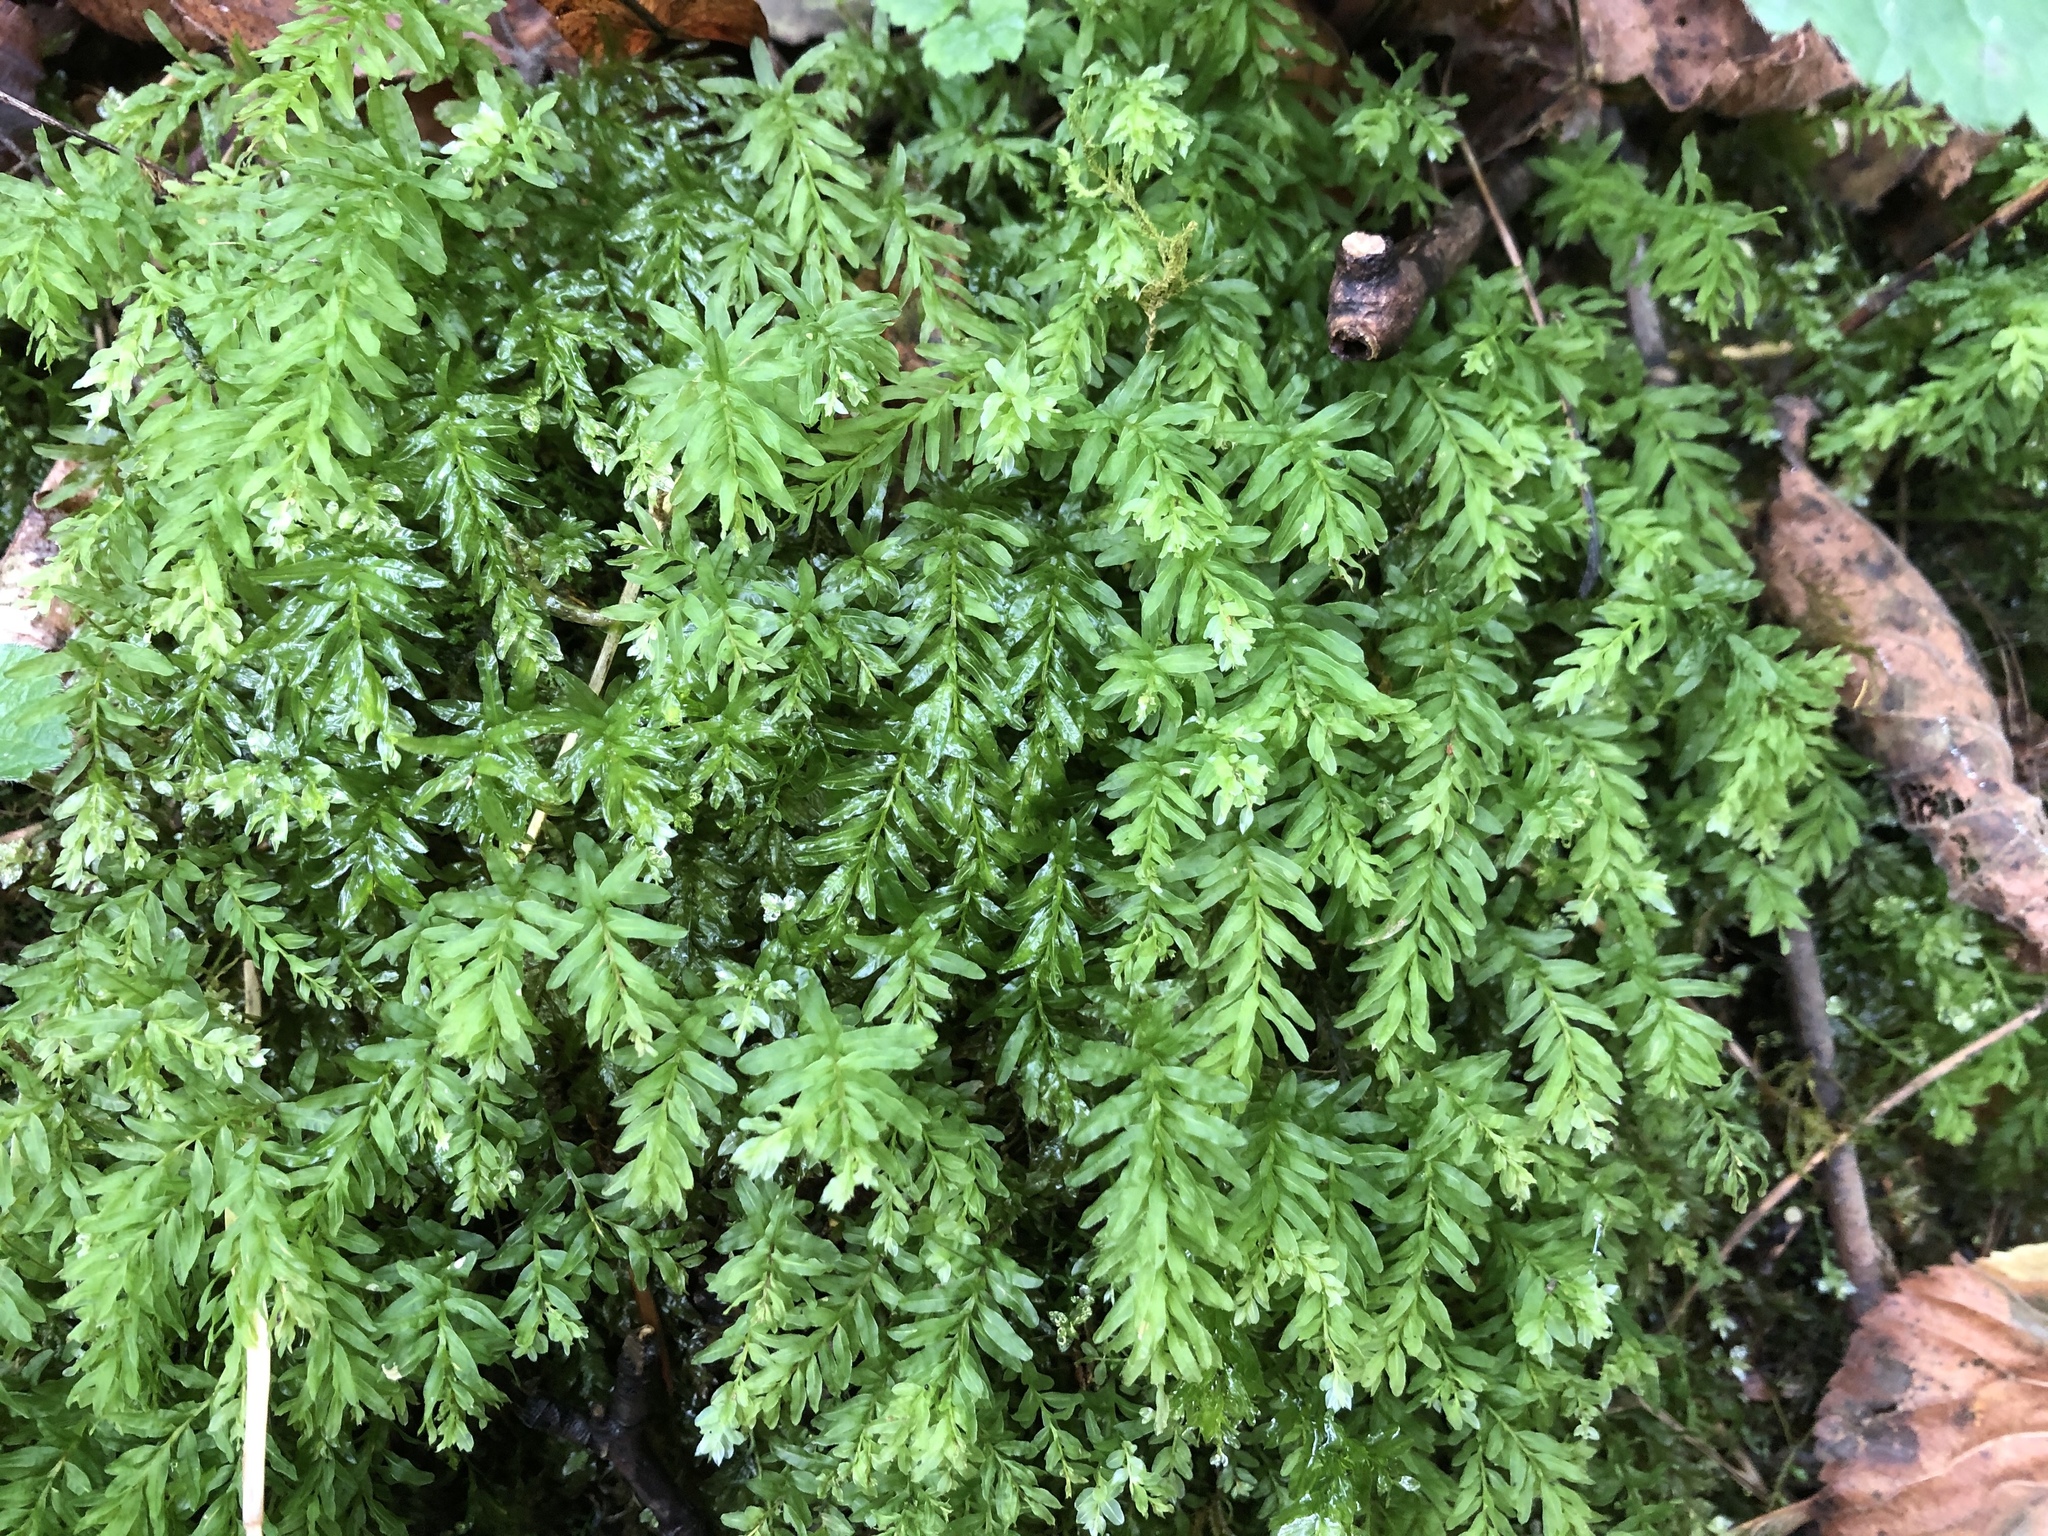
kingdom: Plantae
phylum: Bryophyta
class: Bryopsida
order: Bryales
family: Mniaceae
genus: Plagiomnium
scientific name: Plagiomnium undulatum
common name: Hart's-tongue thyme-moss
